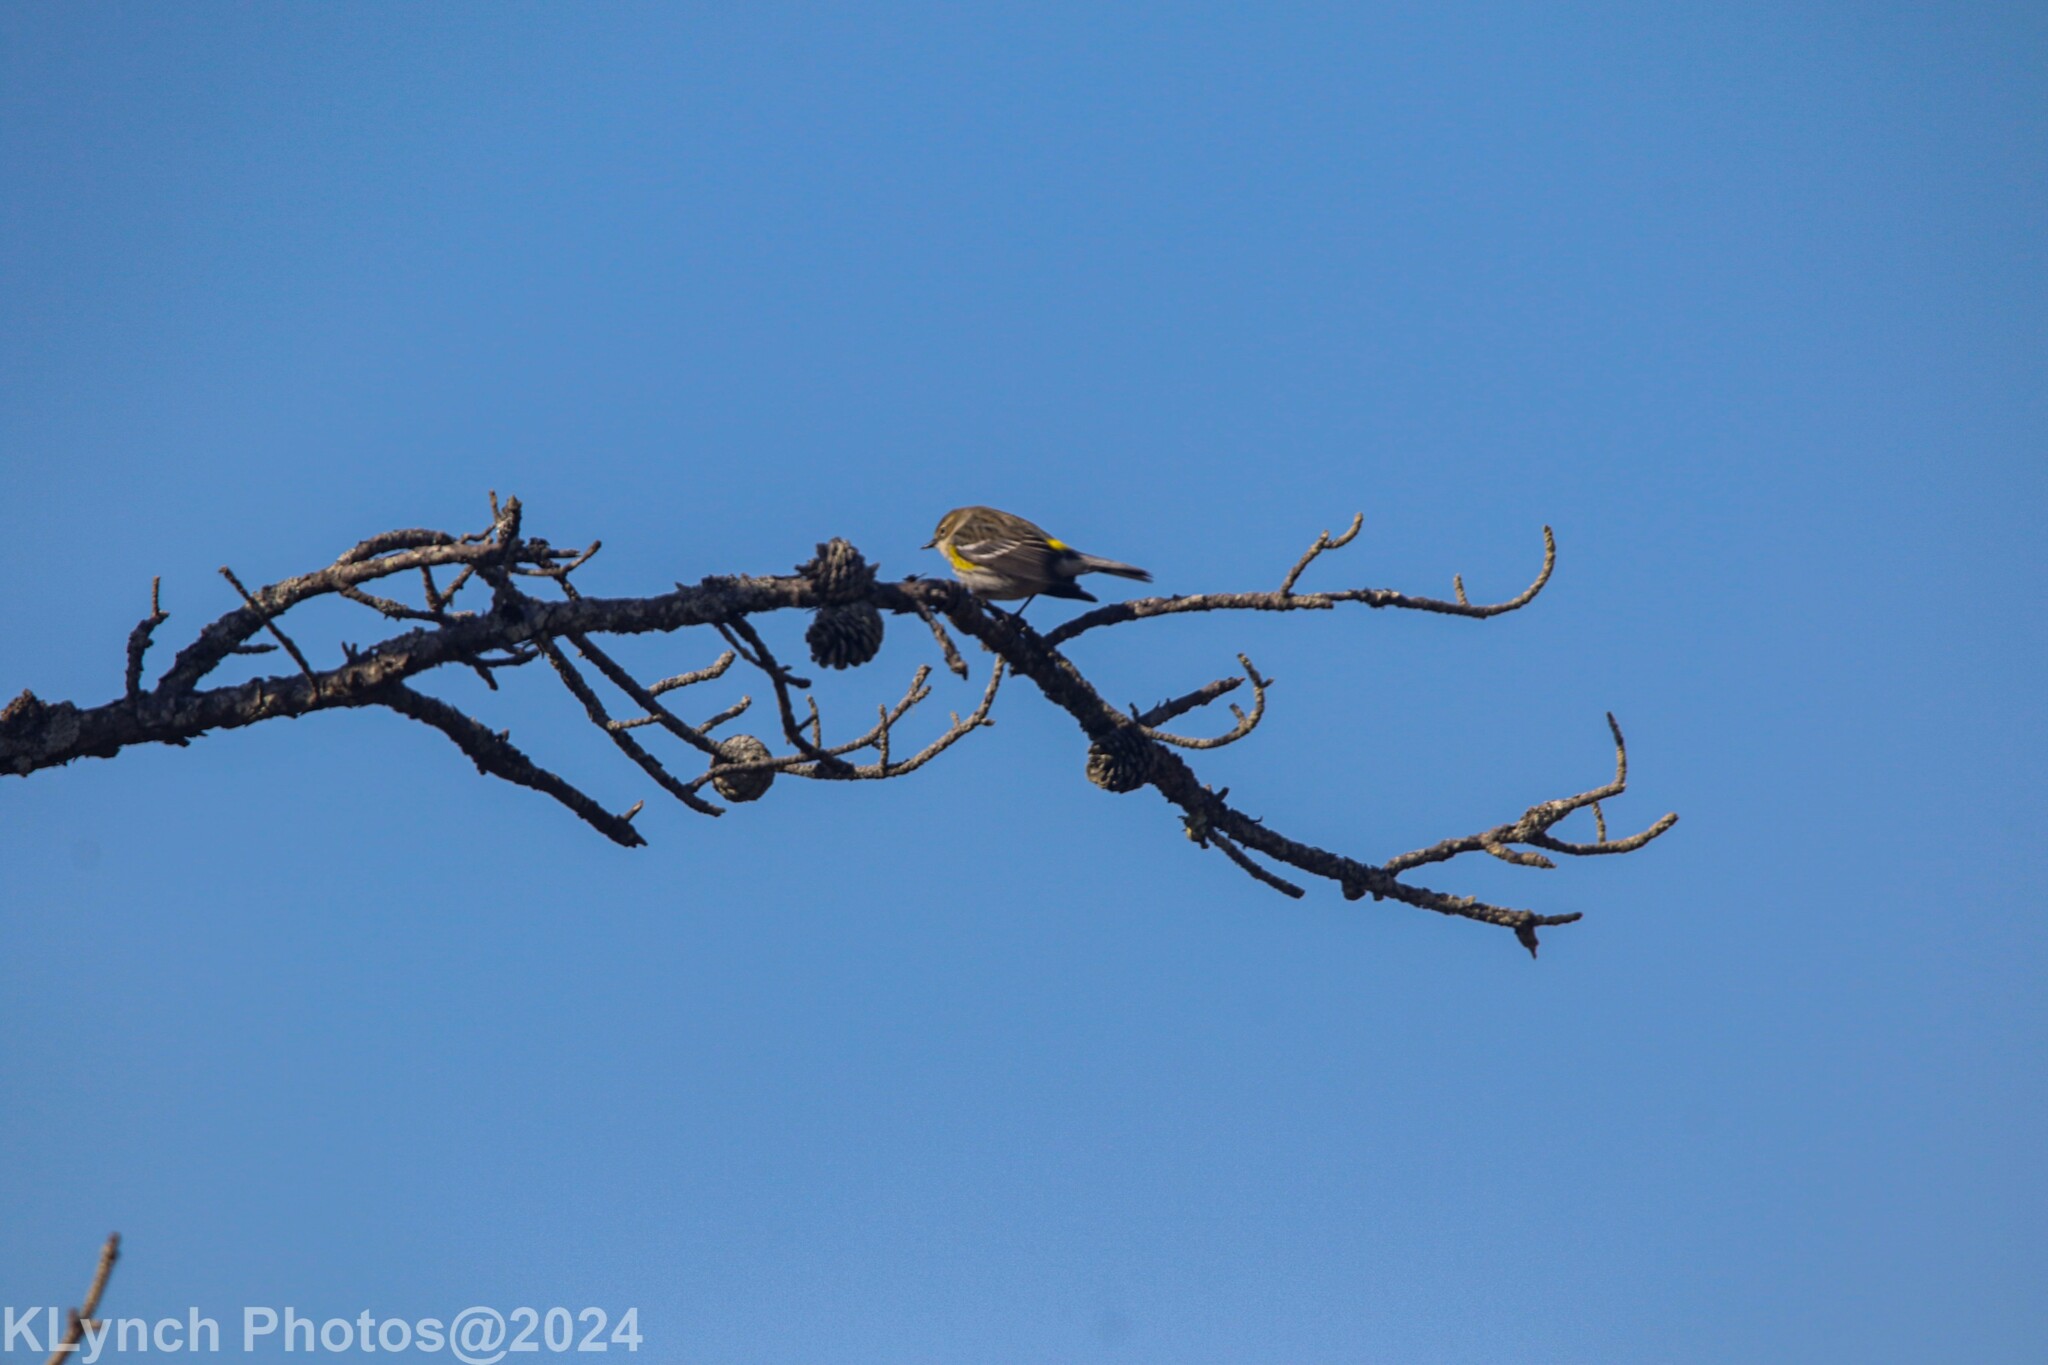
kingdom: Animalia
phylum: Chordata
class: Aves
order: Passeriformes
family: Parulidae
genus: Setophaga
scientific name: Setophaga coronata
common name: Myrtle warbler
